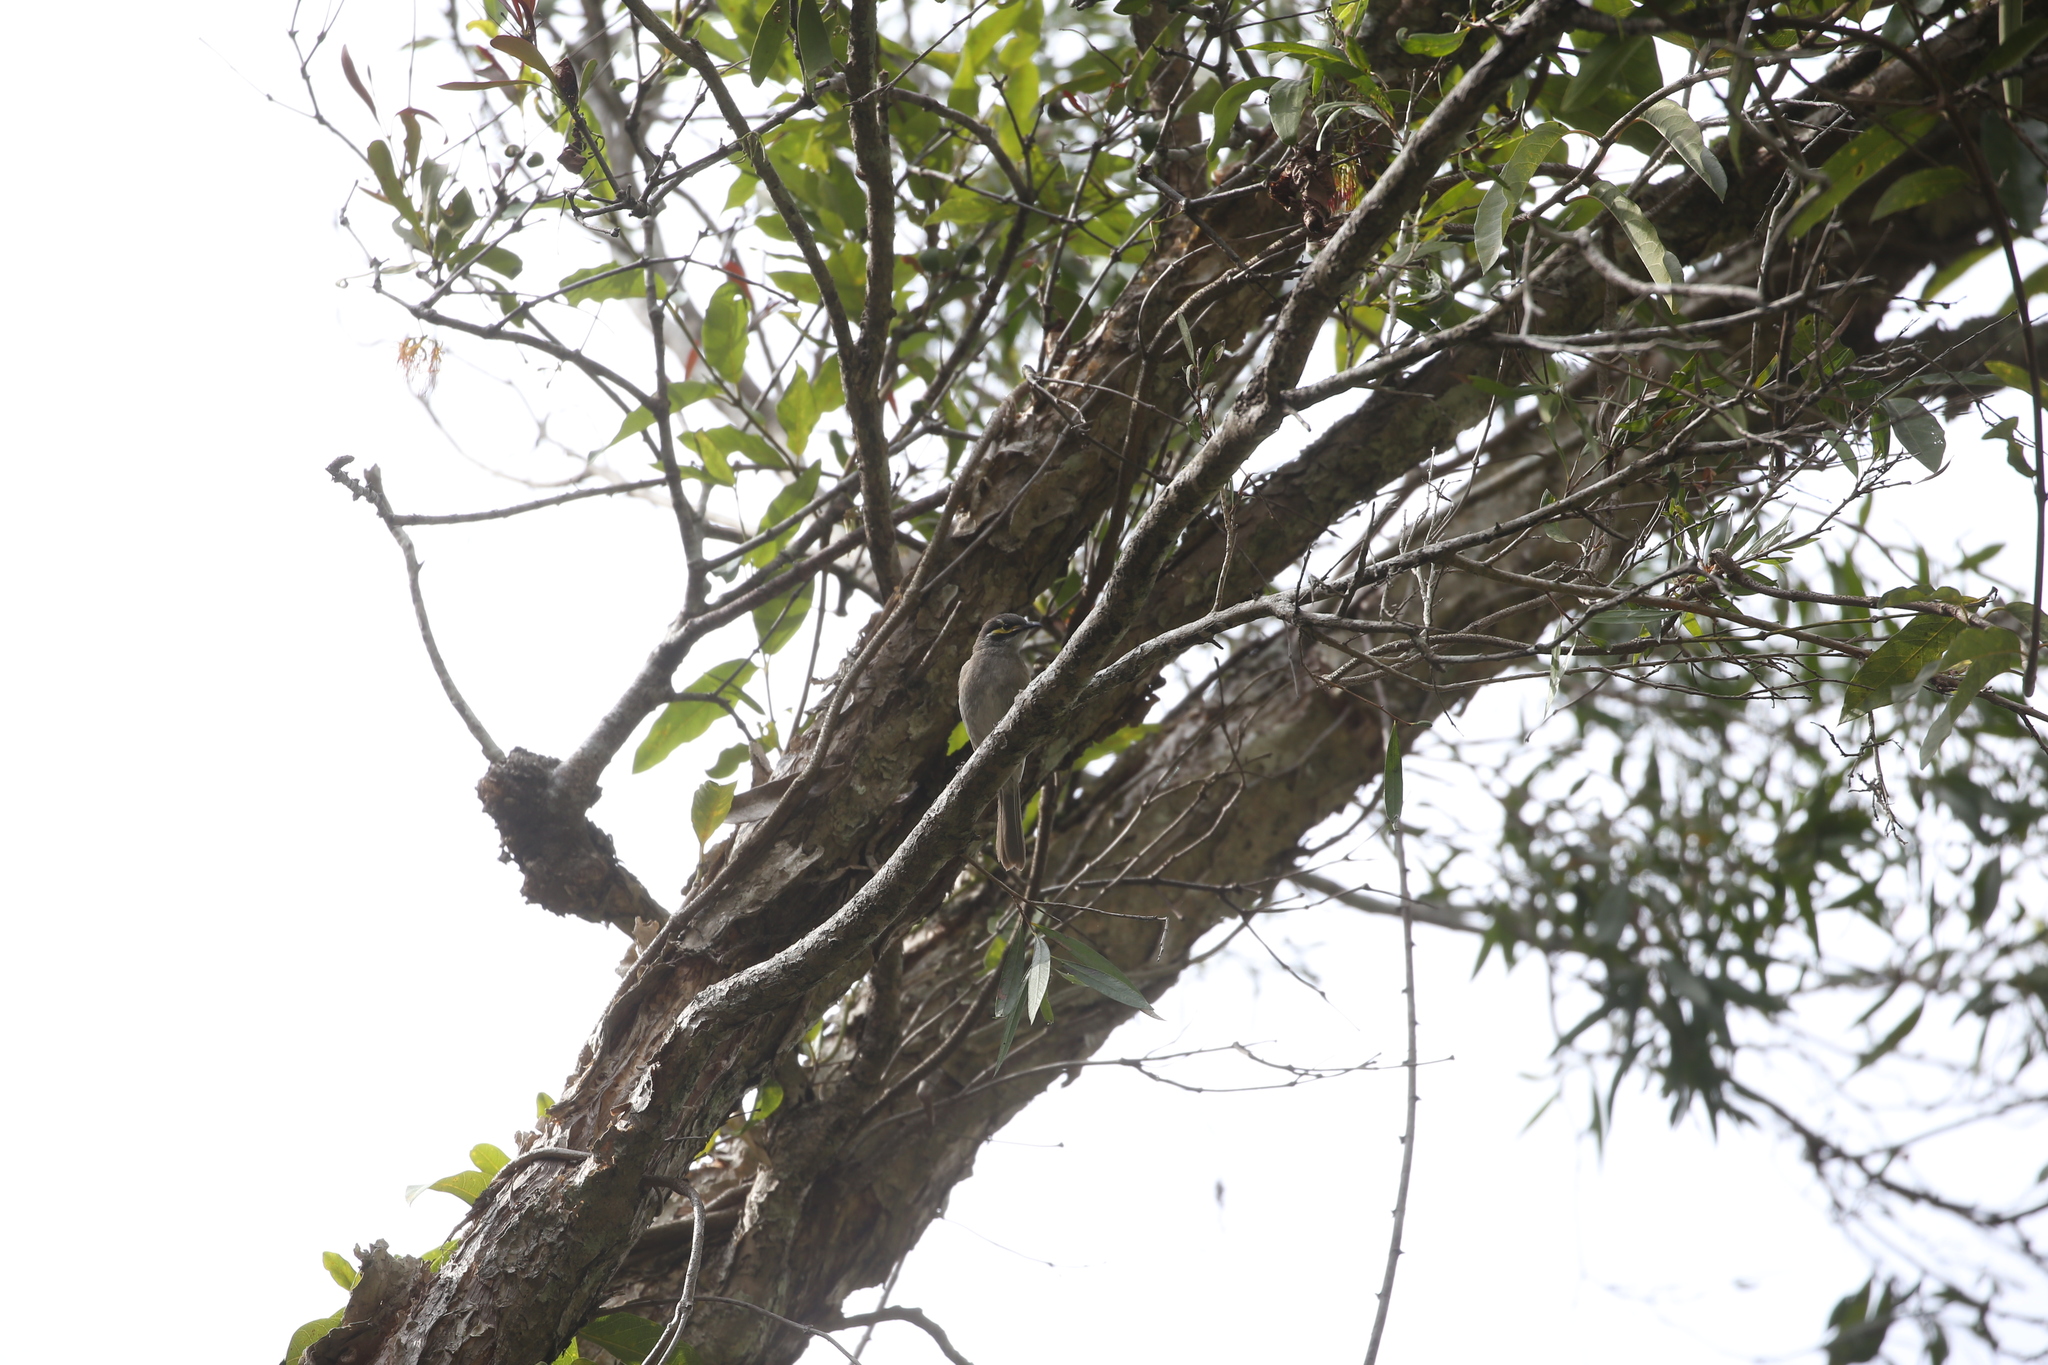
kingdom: Animalia
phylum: Chordata
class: Aves
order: Passeriformes
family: Meliphagidae
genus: Caligavis
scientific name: Caligavis chrysops
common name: Yellow-faced honeyeater
